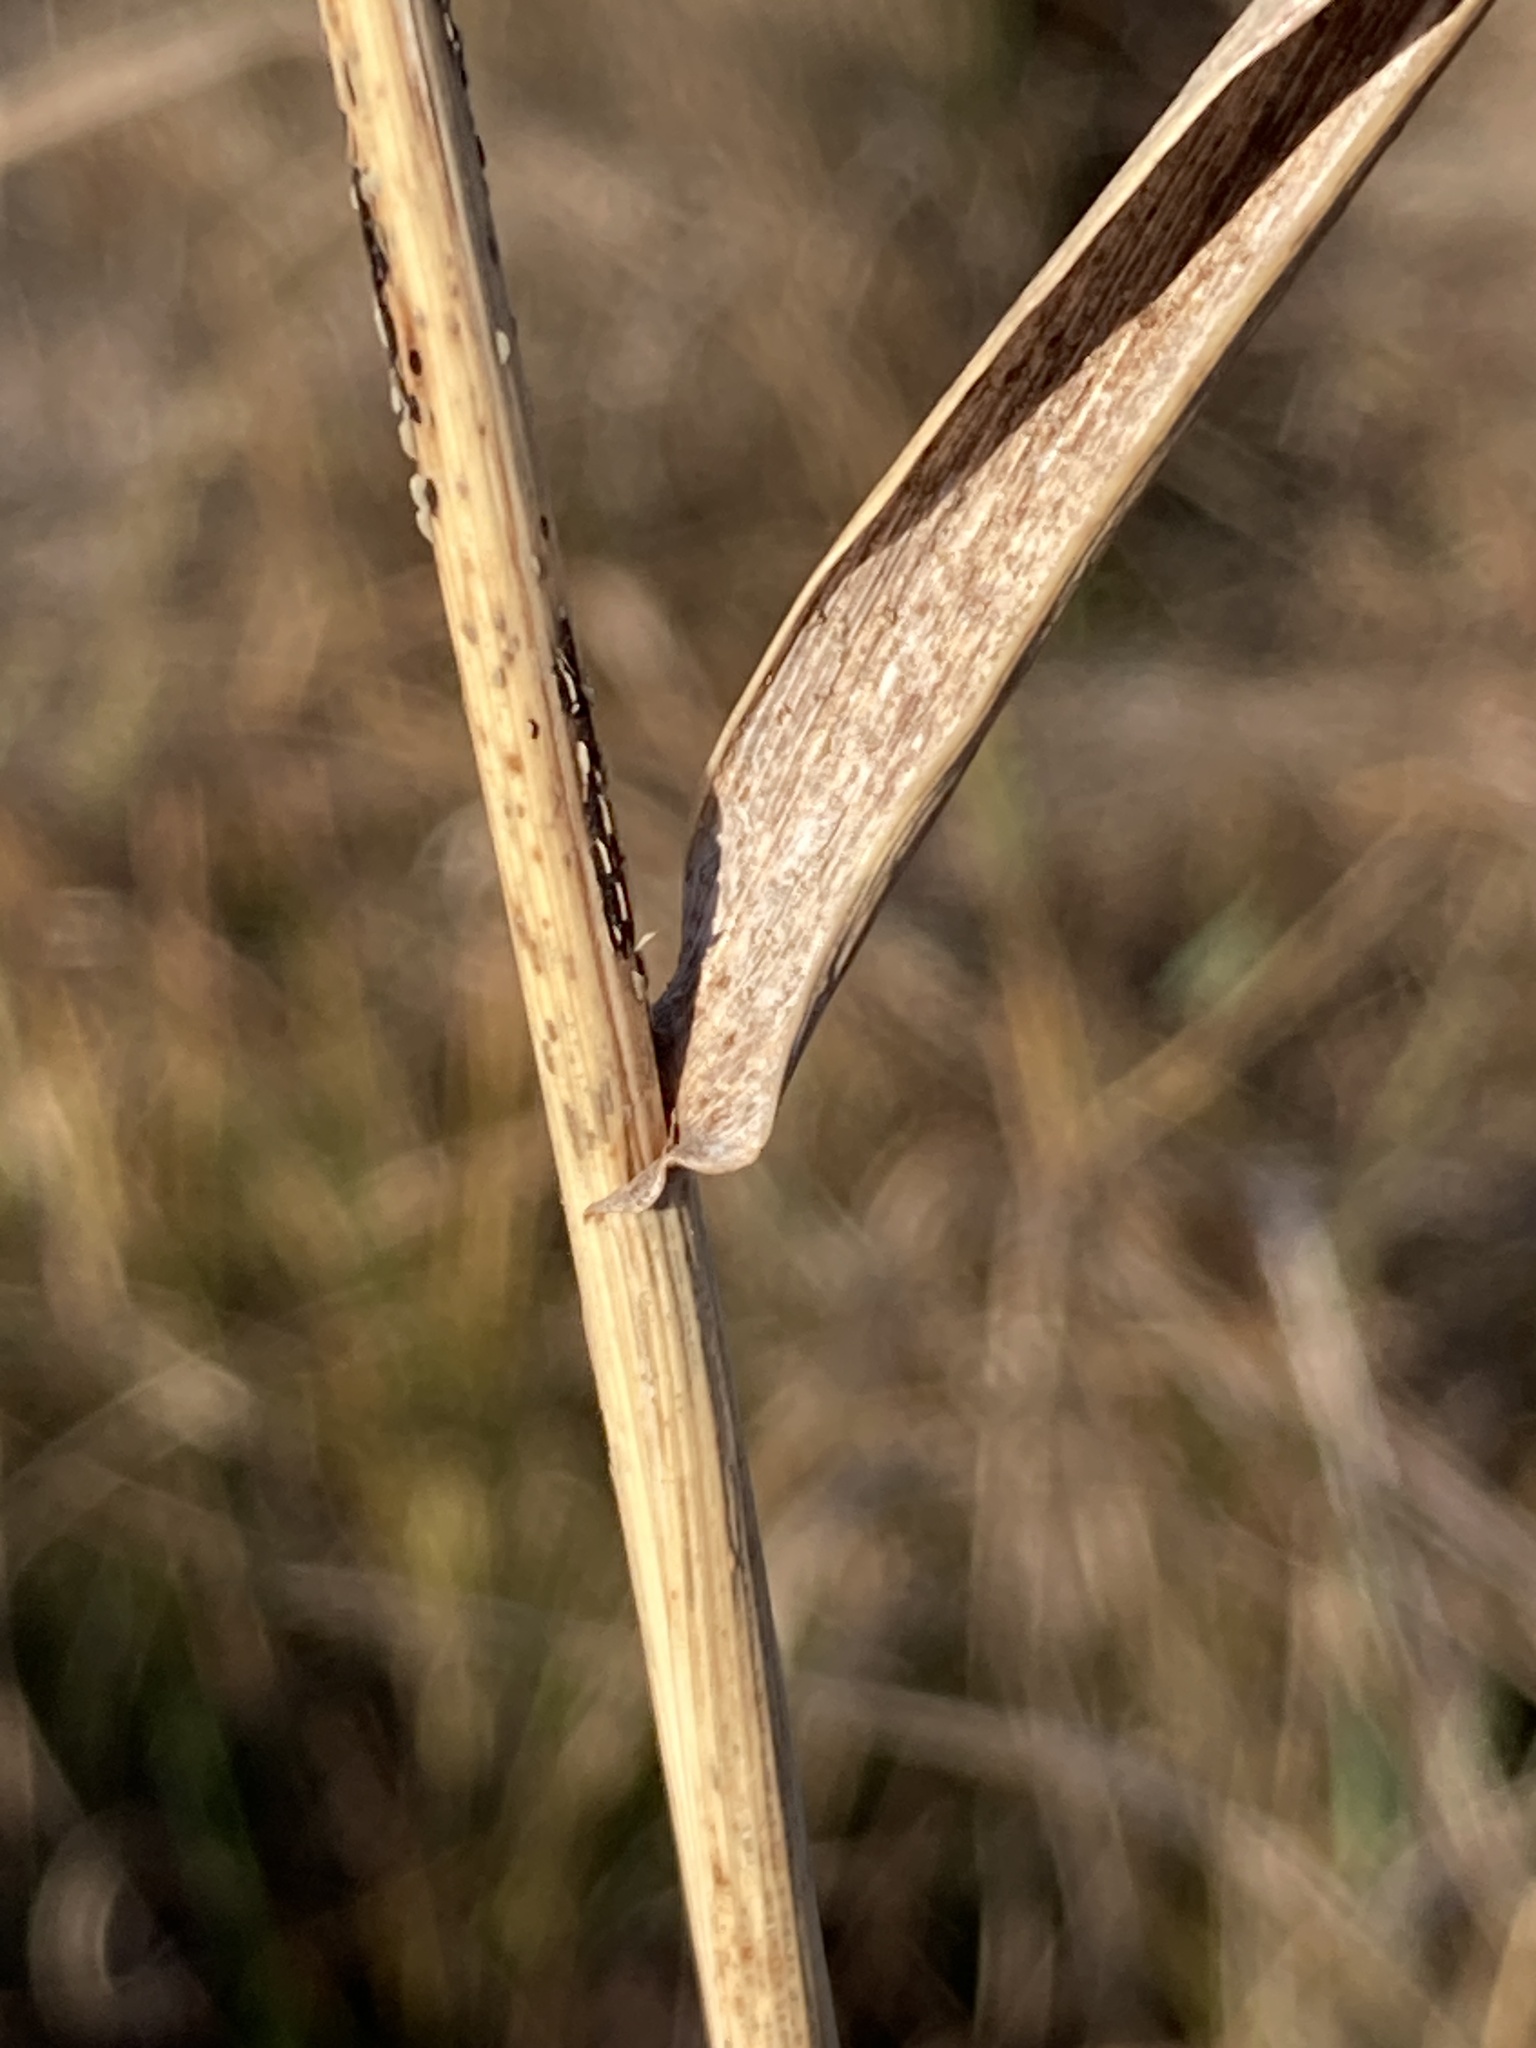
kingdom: Plantae
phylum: Tracheophyta
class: Liliopsida
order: Poales
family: Poaceae
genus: Elymus
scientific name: Elymus repens
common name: Quackgrass
